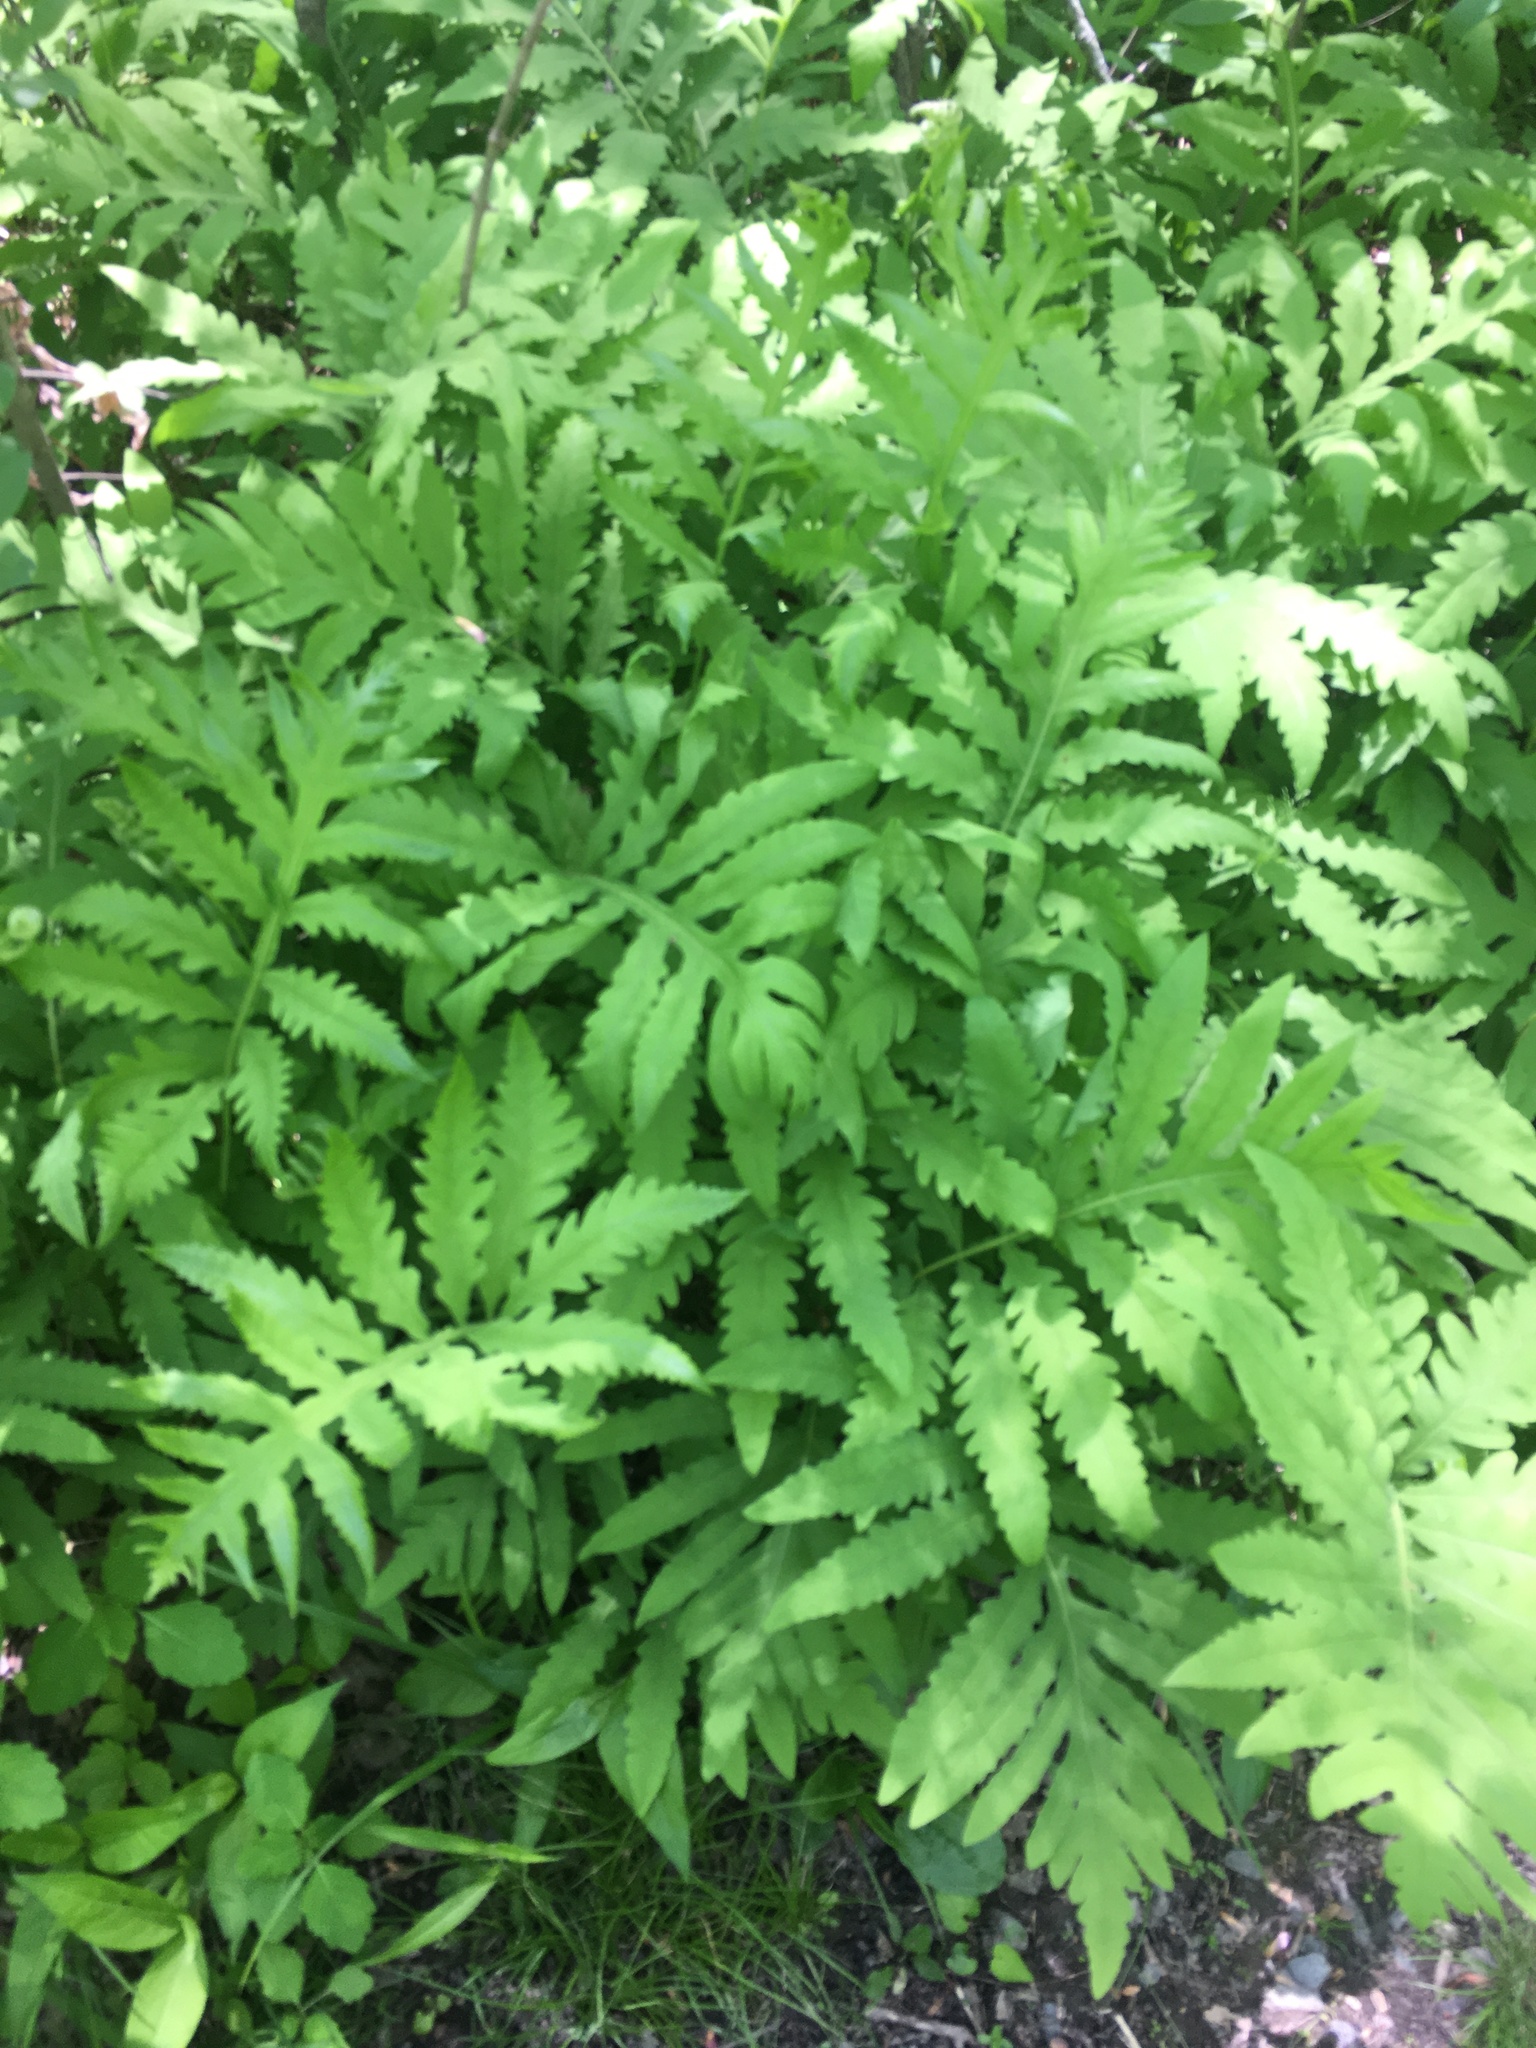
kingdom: Plantae
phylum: Tracheophyta
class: Polypodiopsida
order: Polypodiales
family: Onocleaceae
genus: Onoclea
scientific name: Onoclea sensibilis
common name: Sensitive fern
